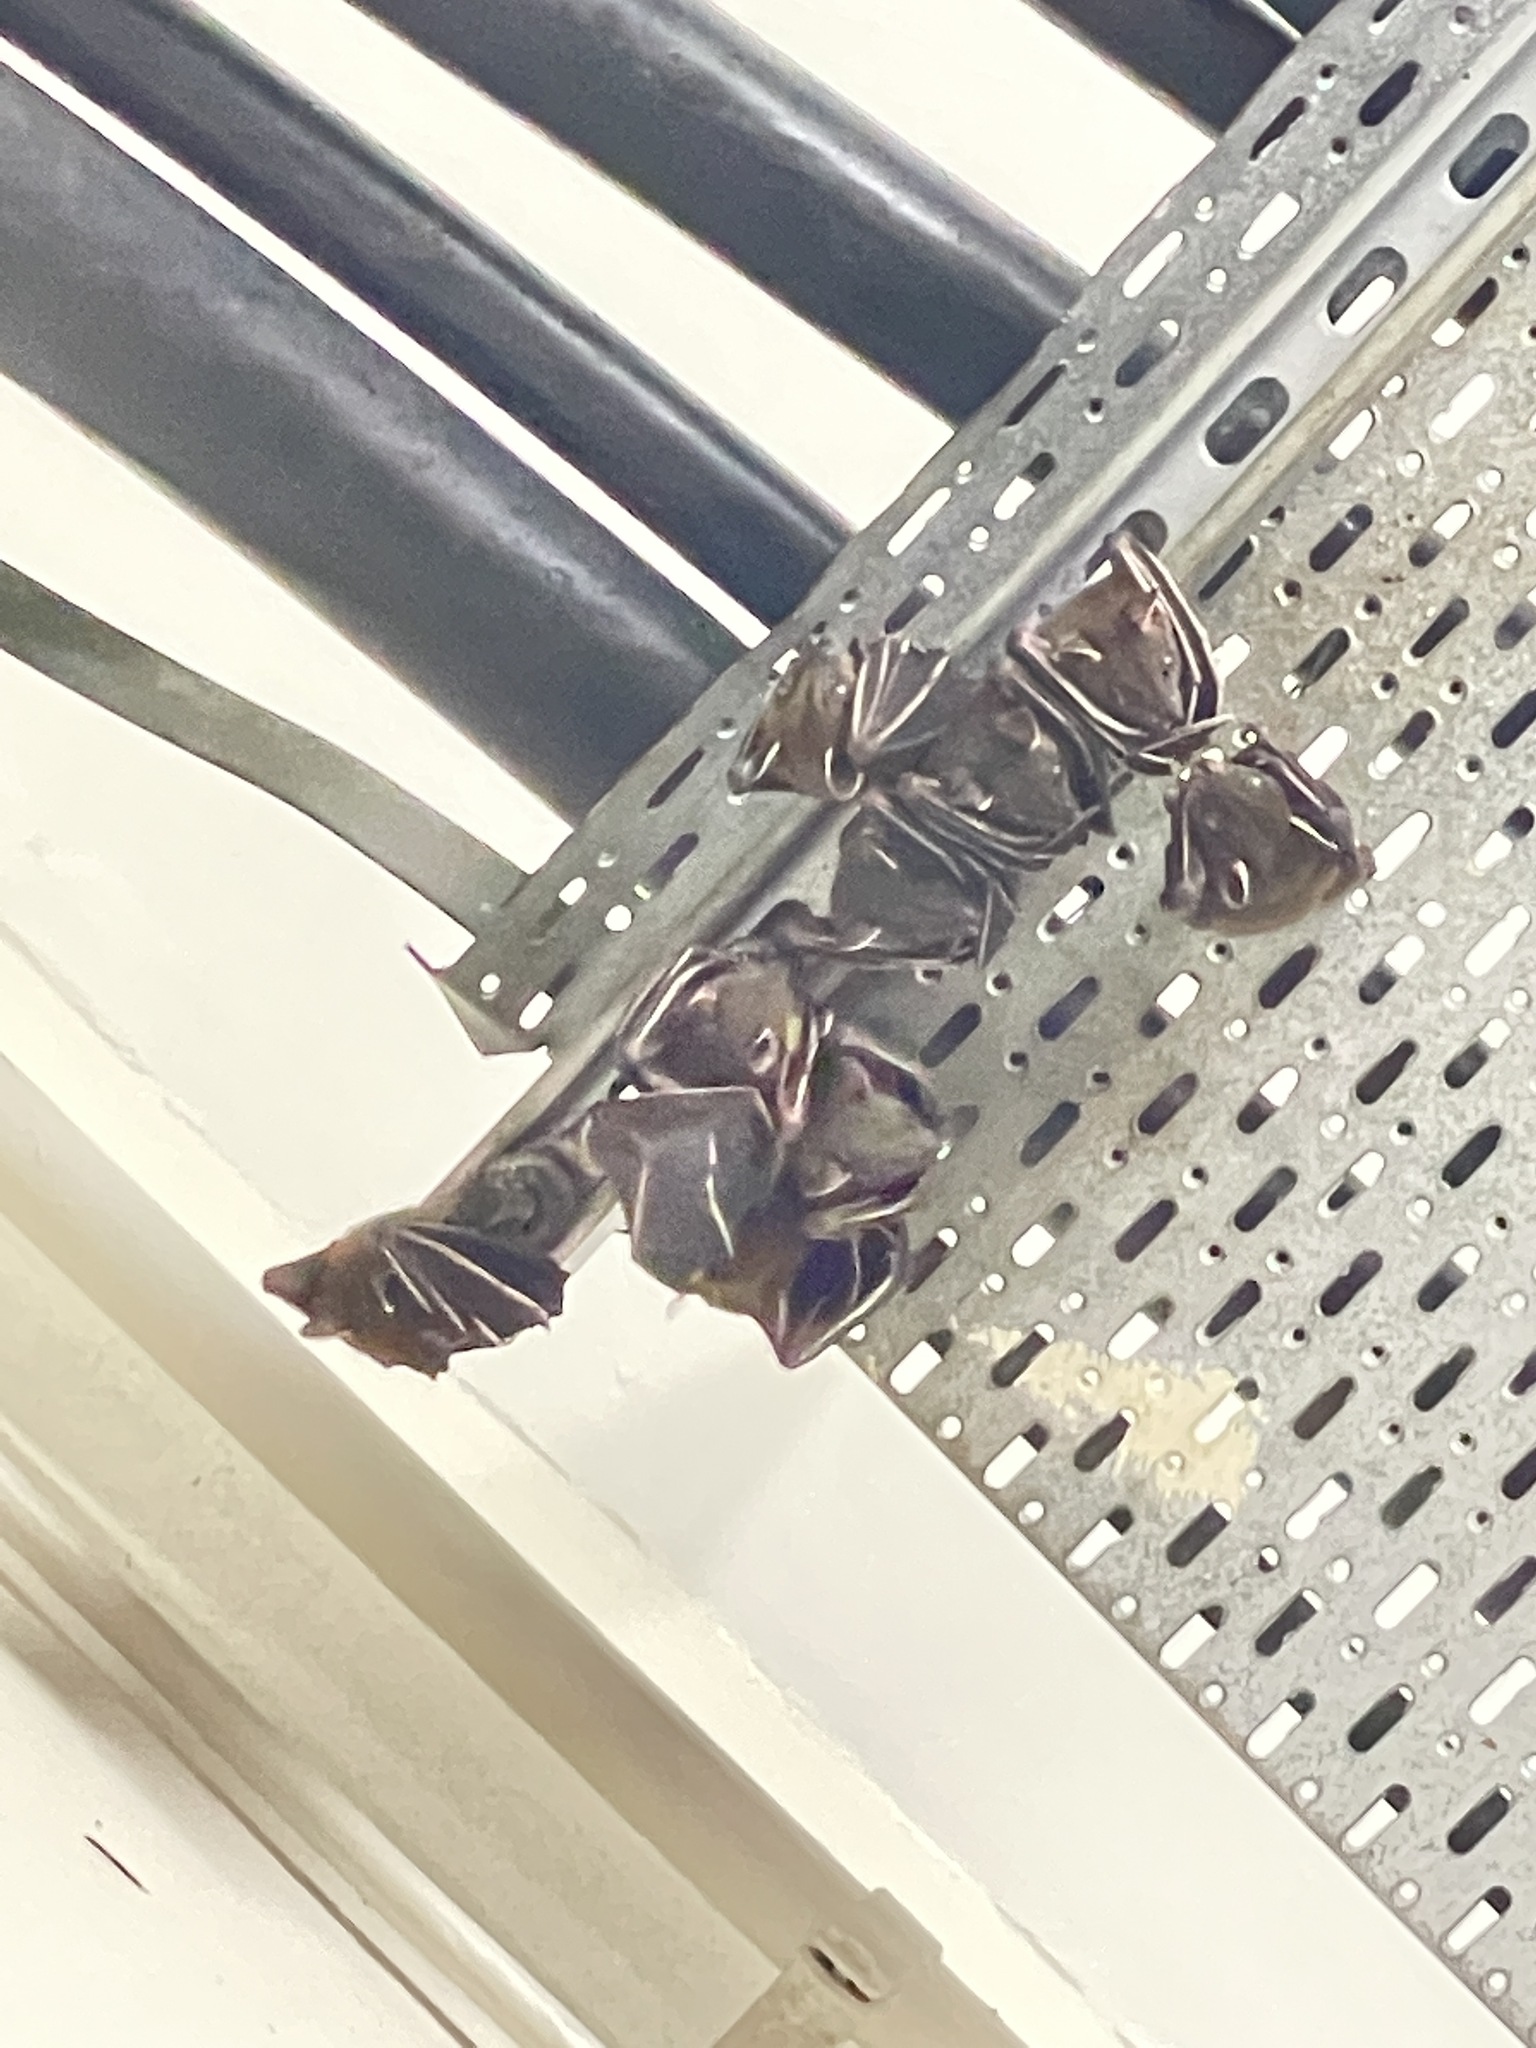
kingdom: Animalia
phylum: Chordata
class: Mammalia
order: Chiroptera
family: Pteropodidae
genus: Cynopterus
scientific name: Cynopterus sphinx
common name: Greater short-nosed fruit bat
